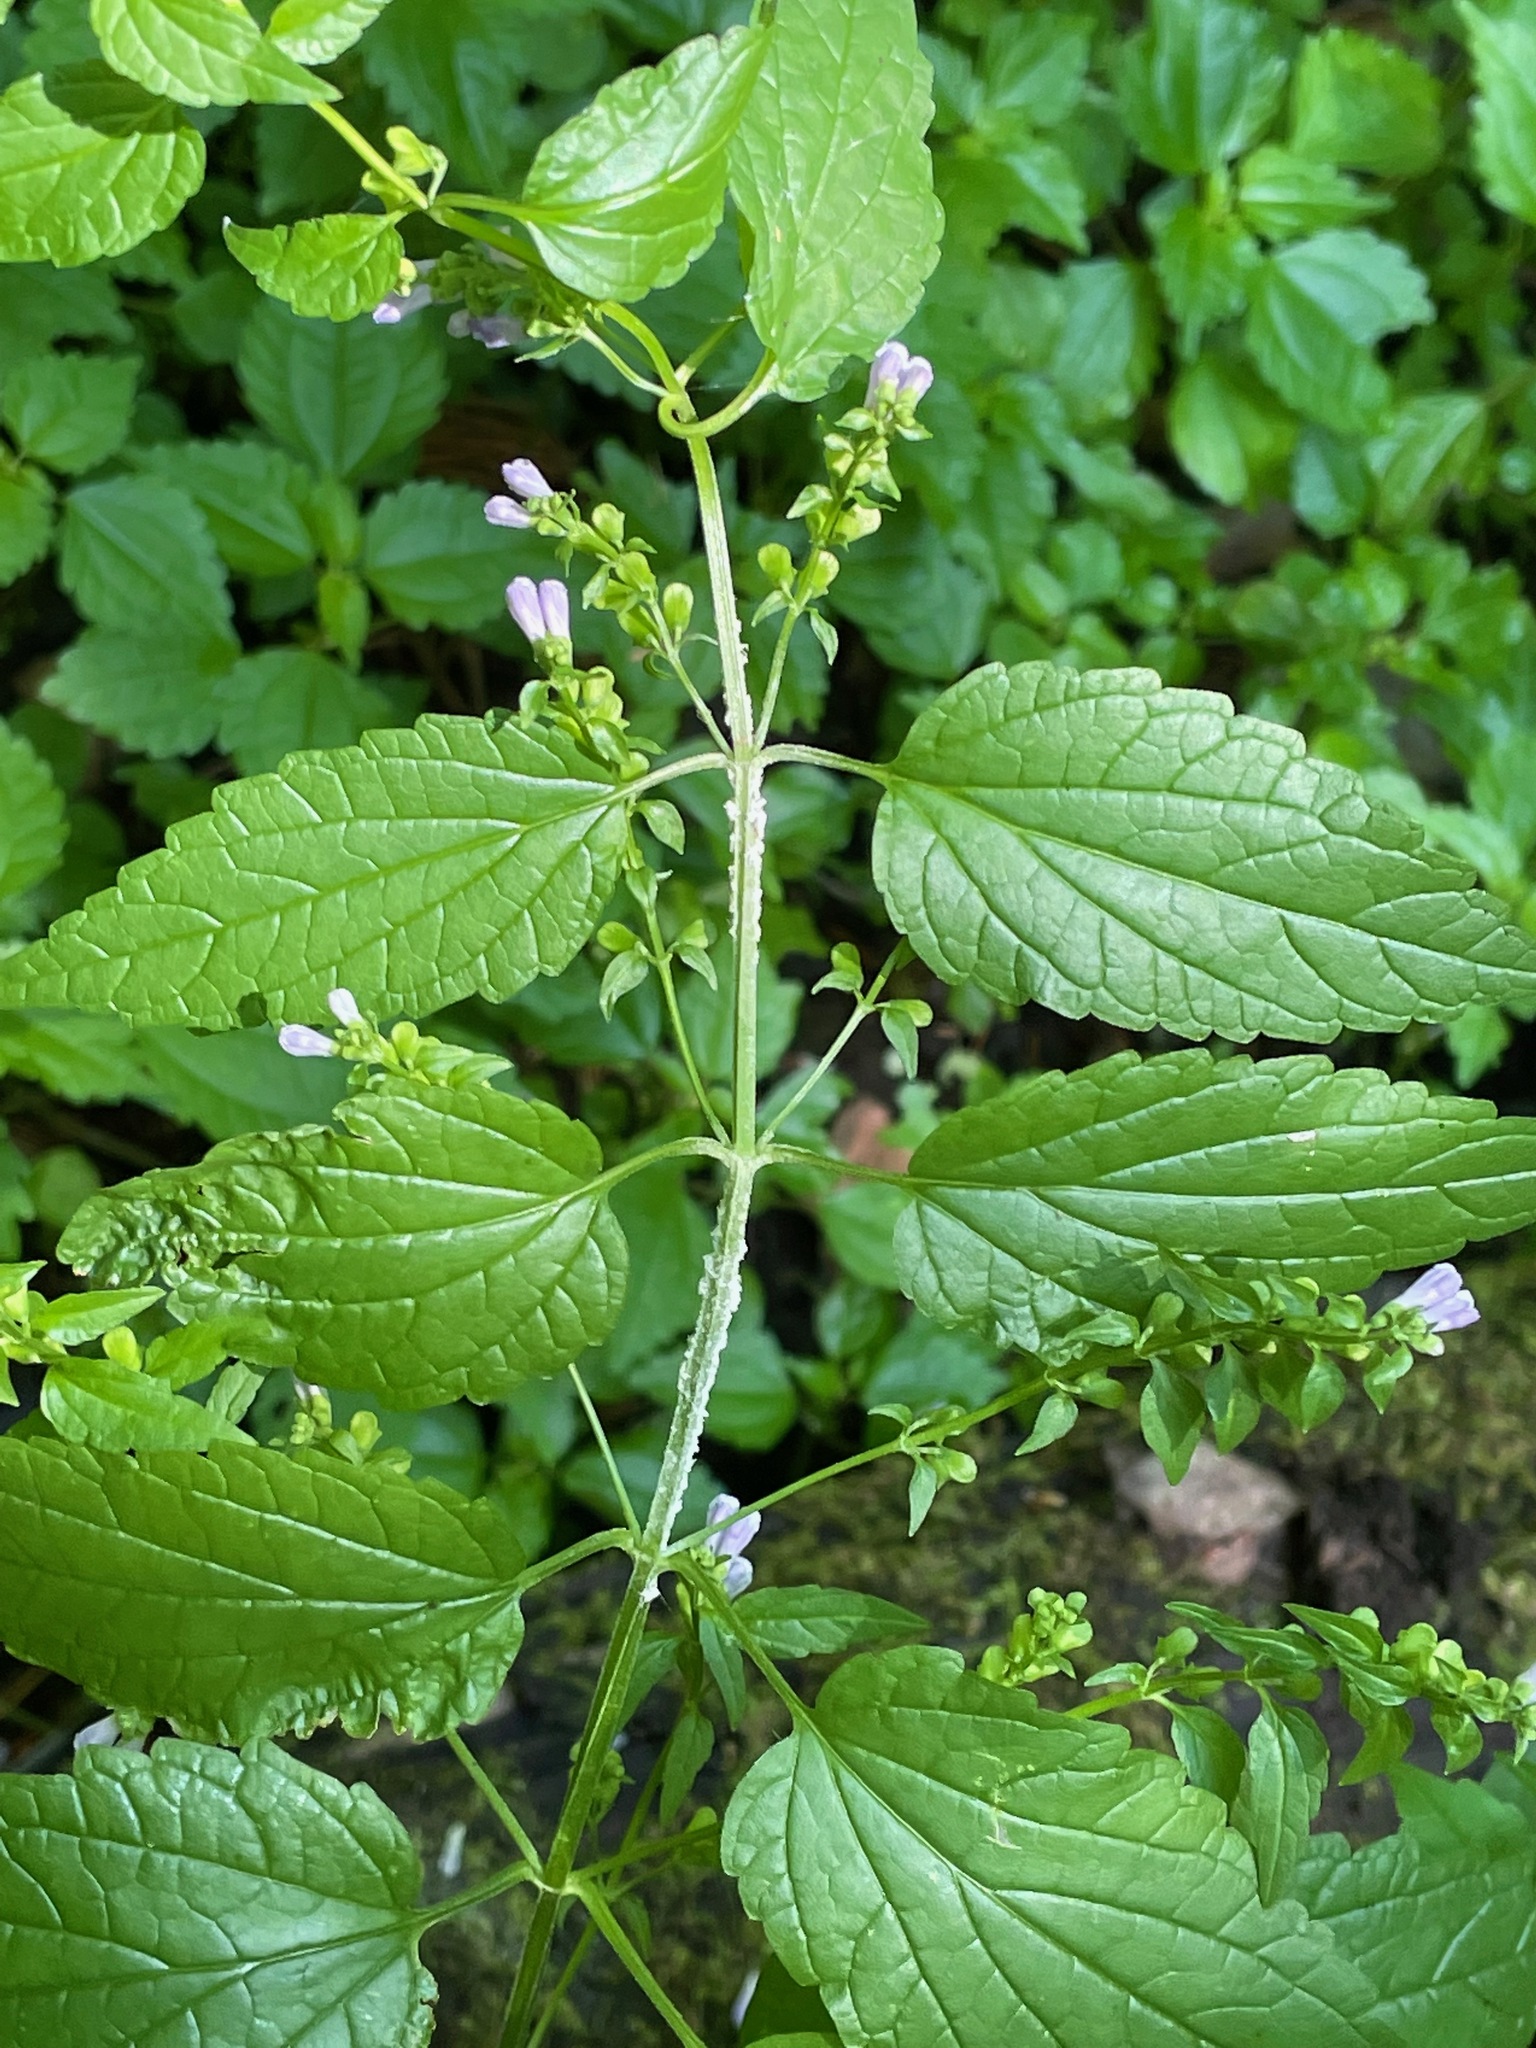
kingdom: Plantae
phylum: Tracheophyta
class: Magnoliopsida
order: Lamiales
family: Lamiaceae
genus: Scutellaria
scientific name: Scutellaria lateriflora
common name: Blue skullcap
